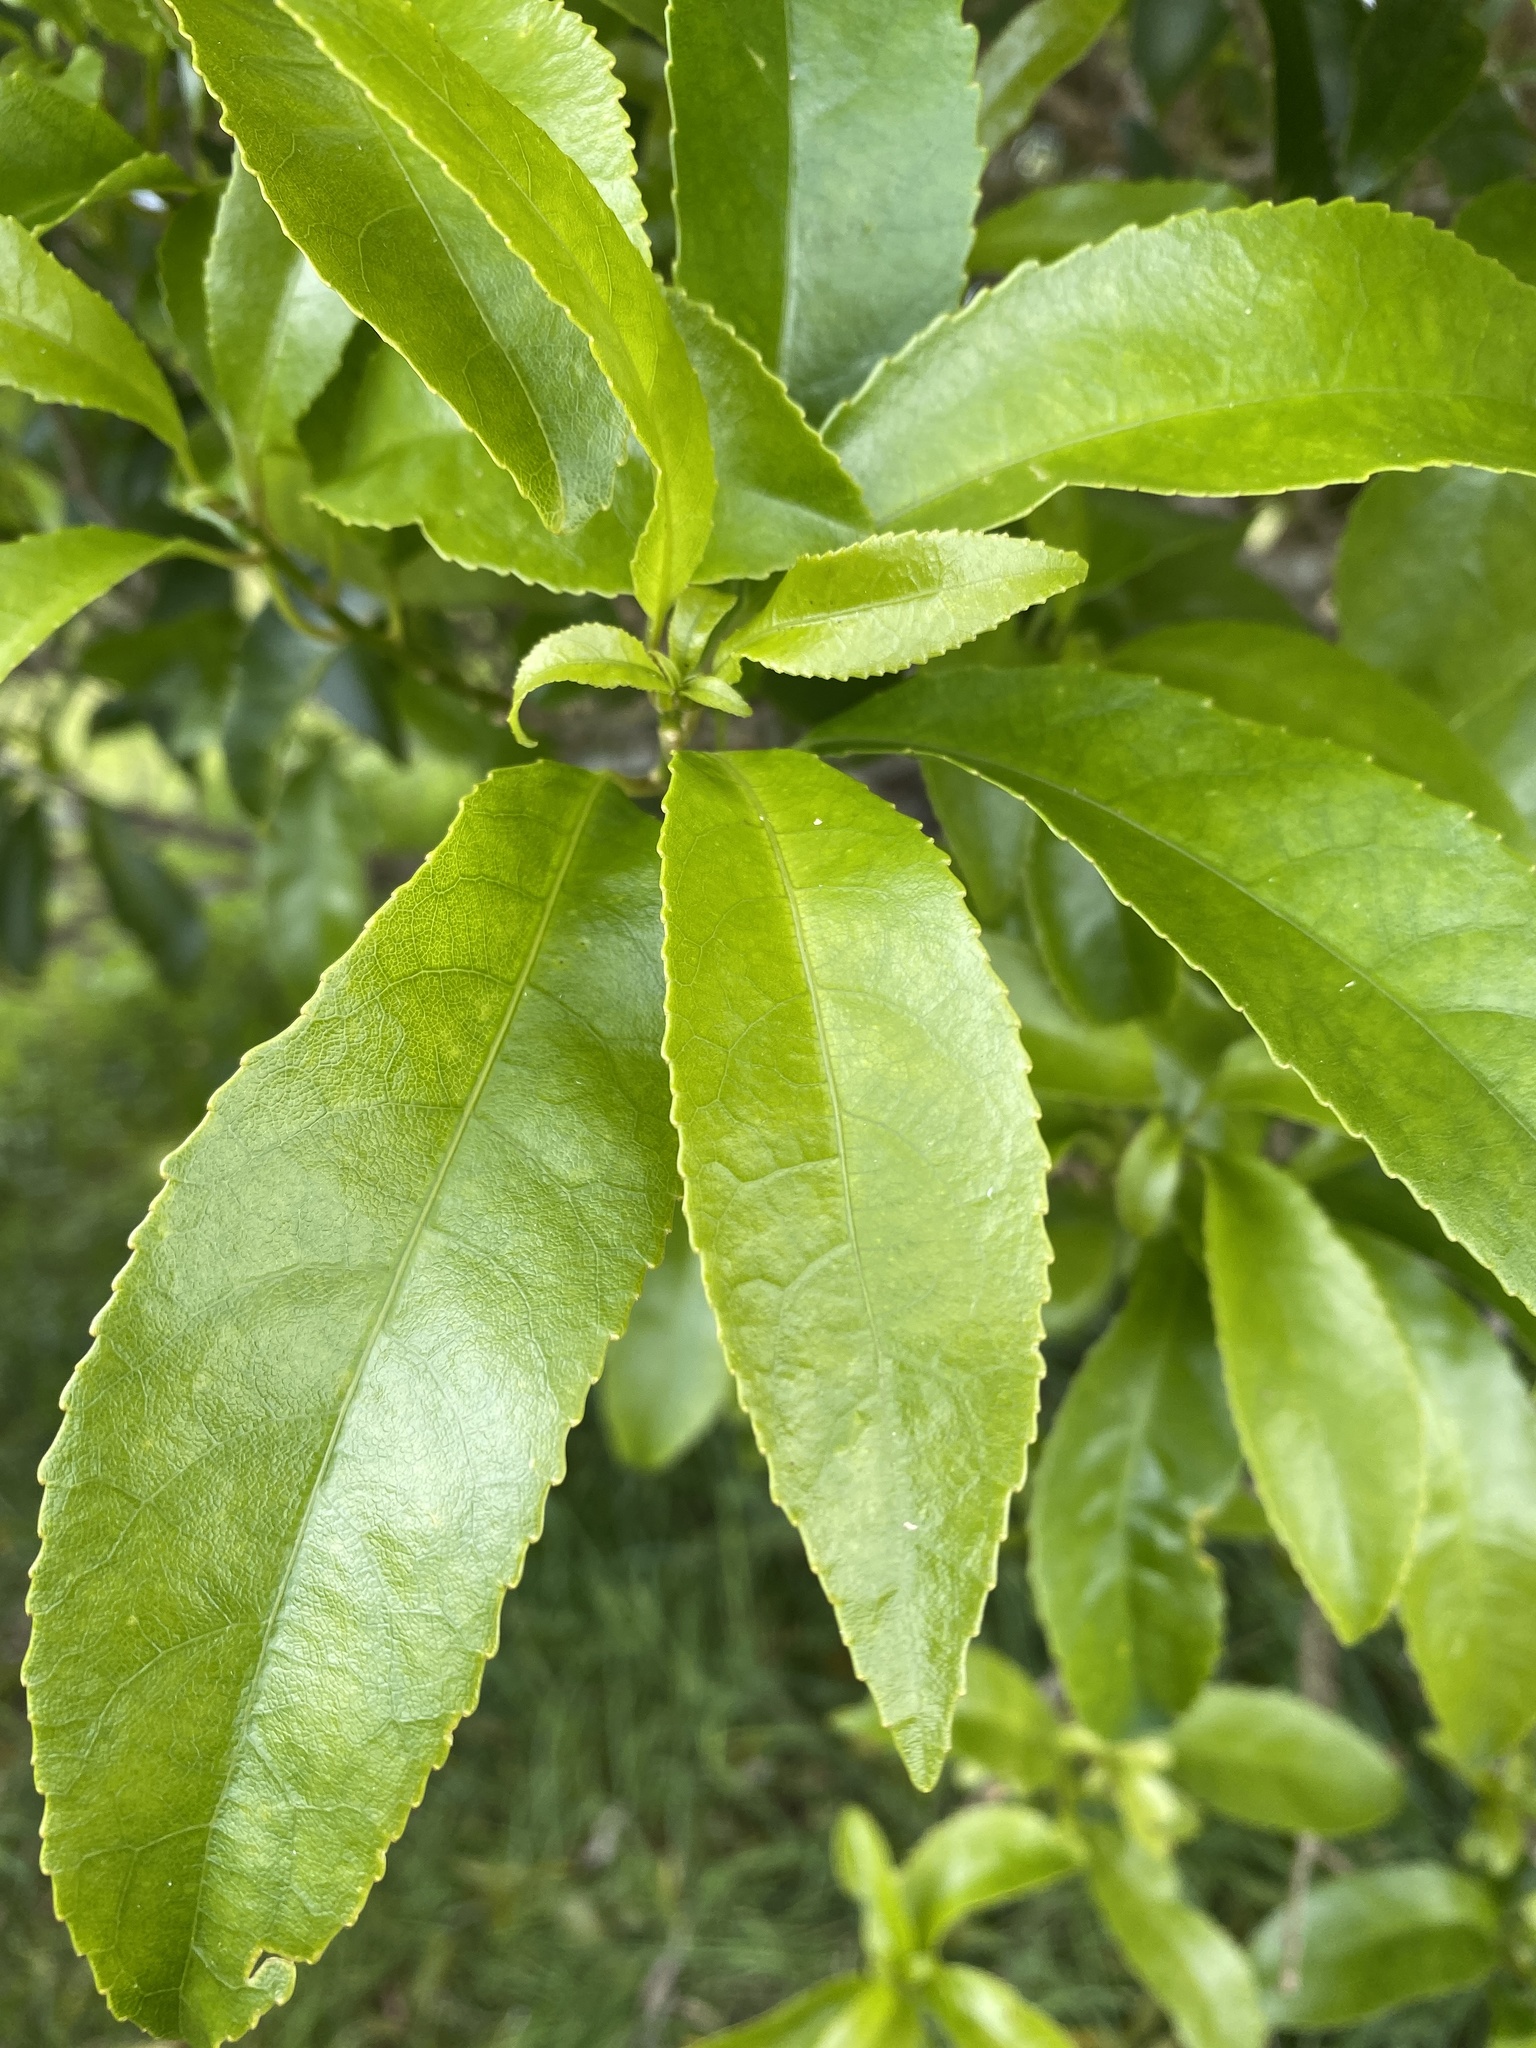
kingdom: Plantae
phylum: Tracheophyta
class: Magnoliopsida
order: Malpighiales
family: Violaceae
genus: Melicytus
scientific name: Melicytus ramiflorus
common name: Mahoe
